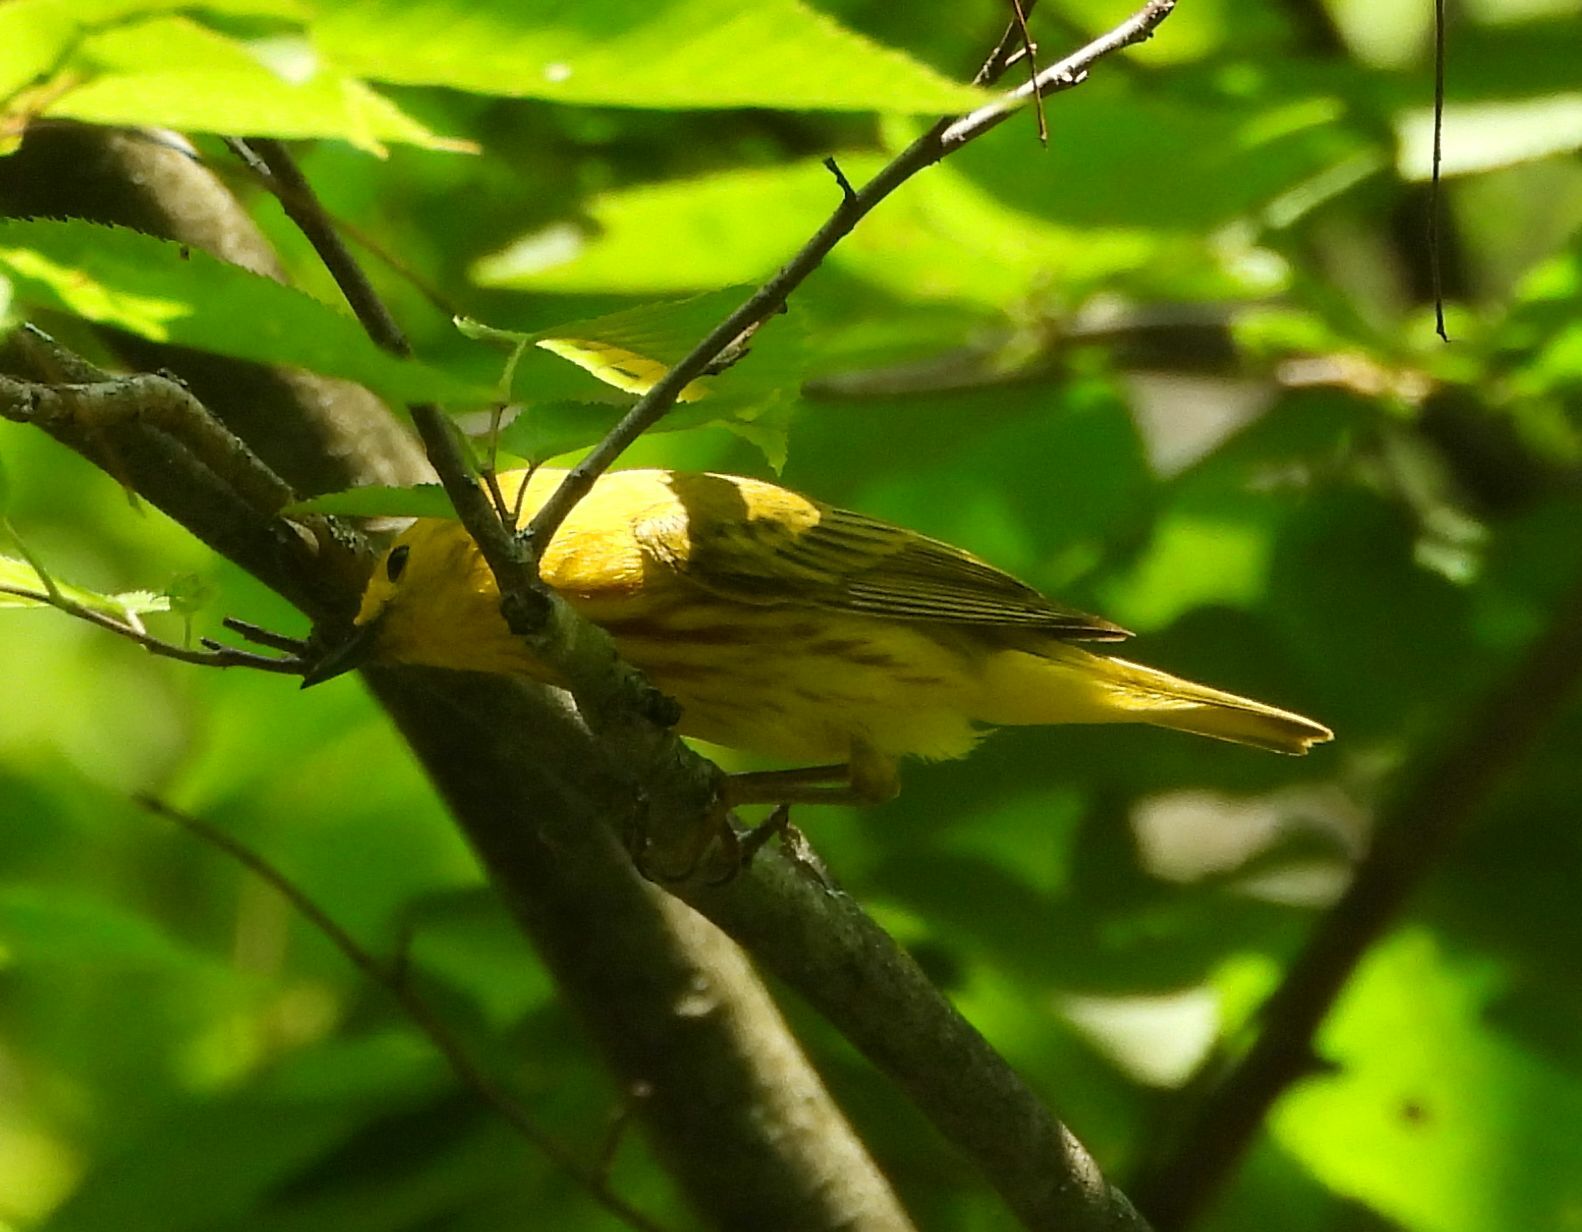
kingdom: Animalia
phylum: Chordata
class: Aves
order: Passeriformes
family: Parulidae
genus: Setophaga
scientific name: Setophaga petechia
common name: Yellow warbler
